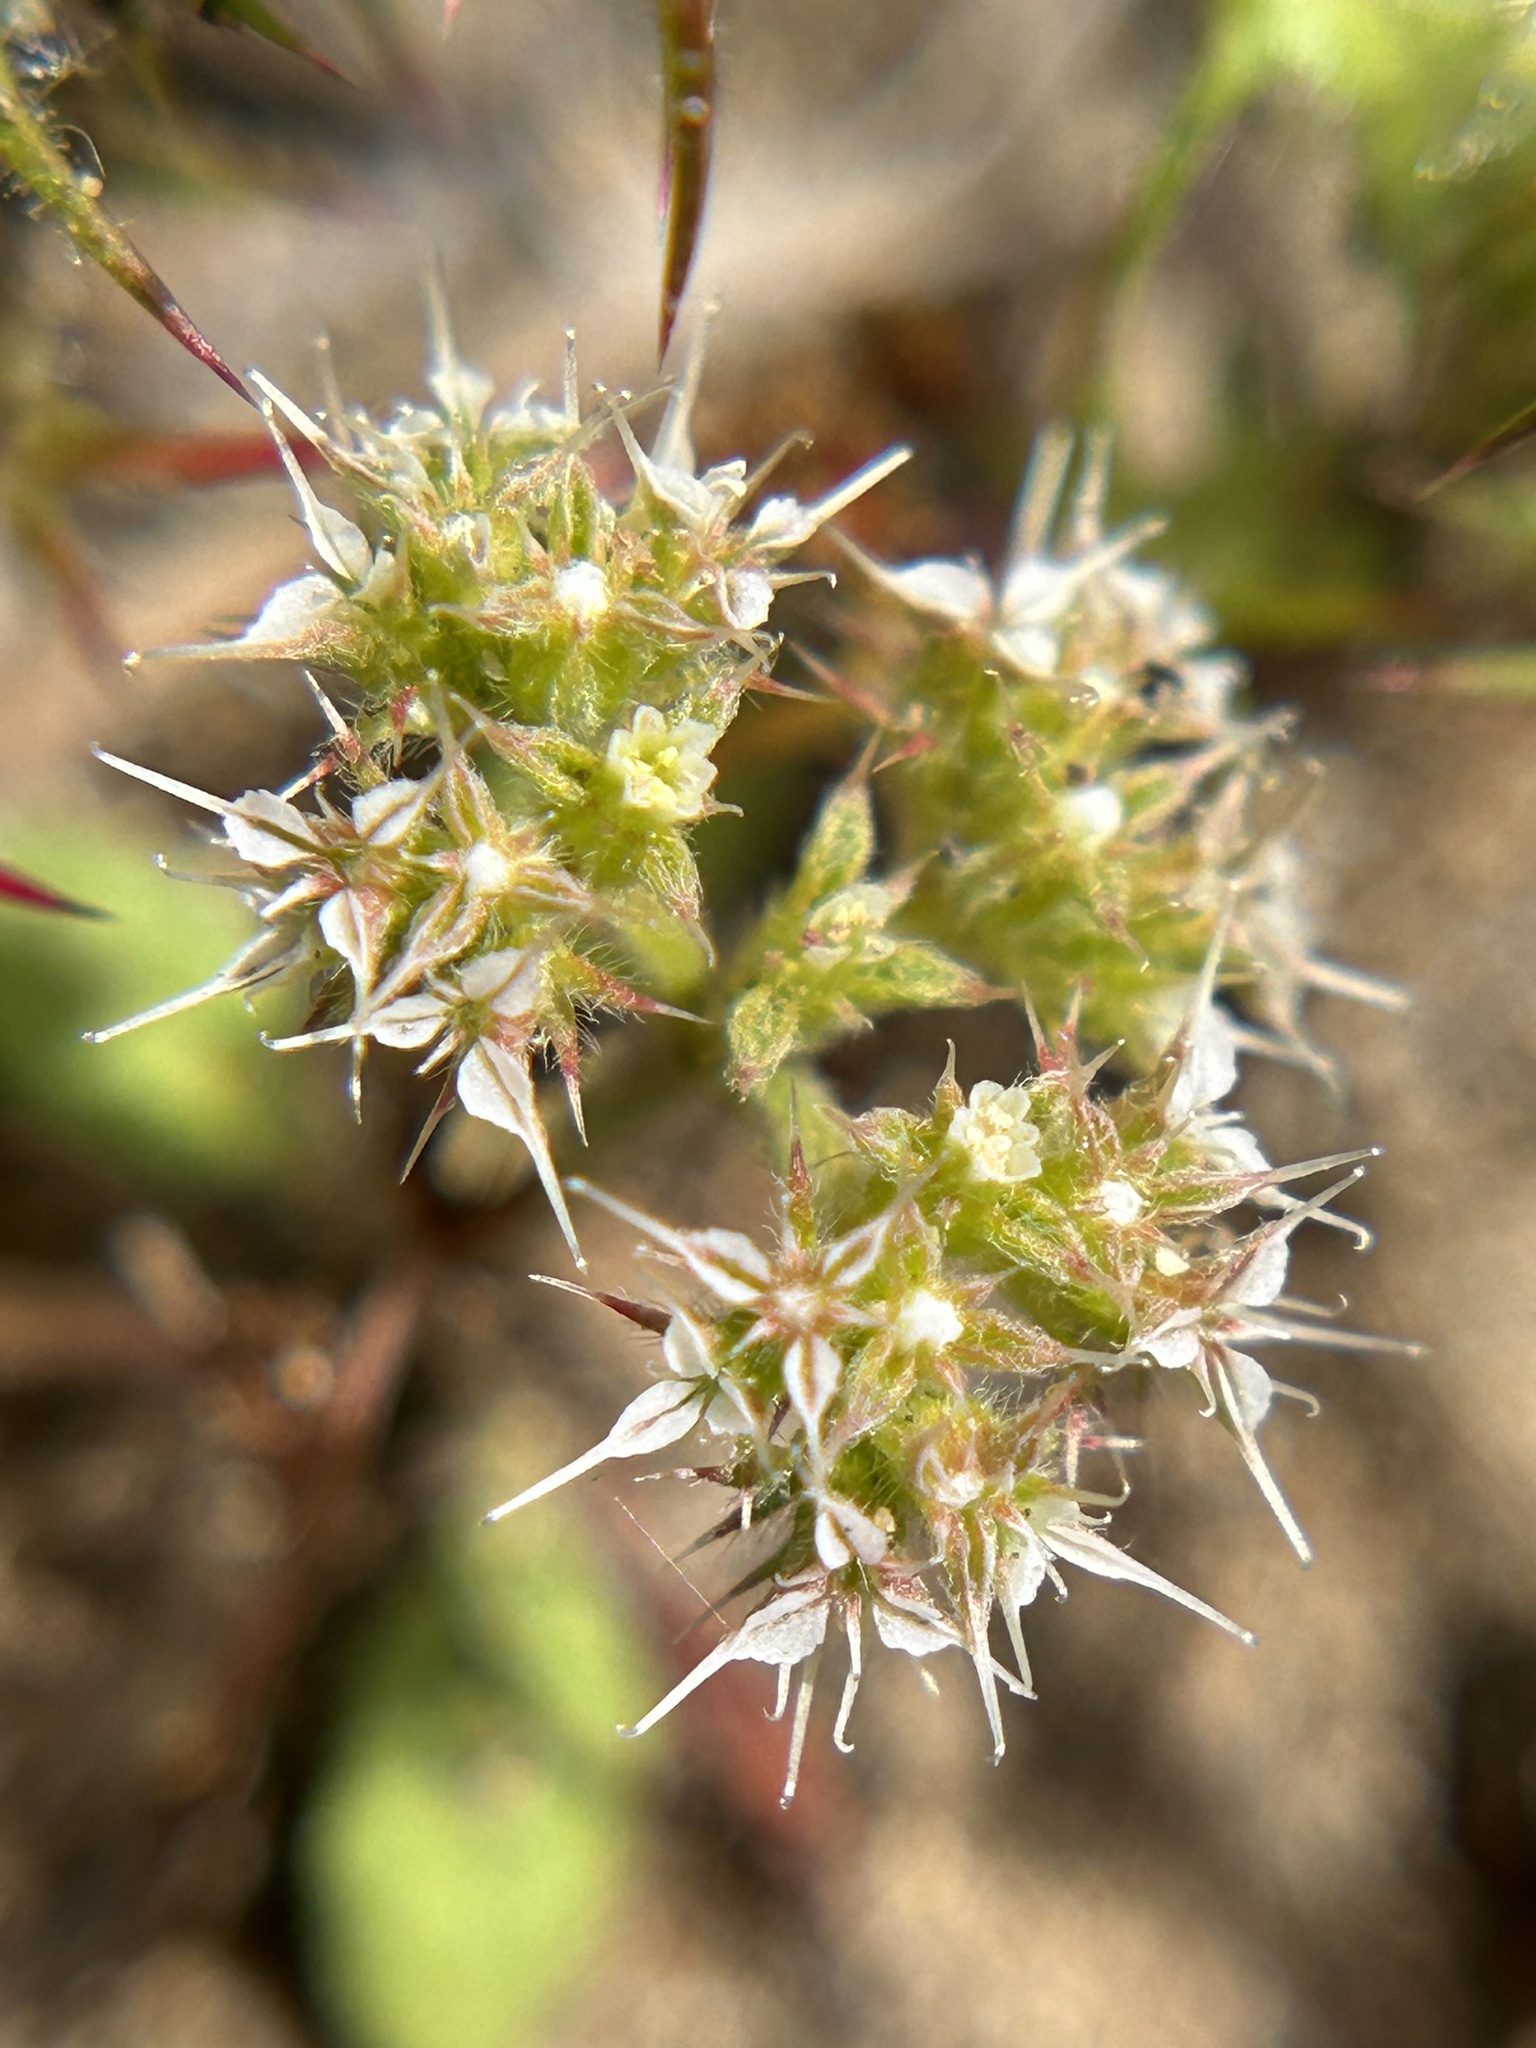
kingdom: Plantae
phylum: Tracheophyta
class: Magnoliopsida
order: Caryophyllales
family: Polygonaceae
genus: Chorizanthe
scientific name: Chorizanthe diffusa
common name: Diffuse spineflower
